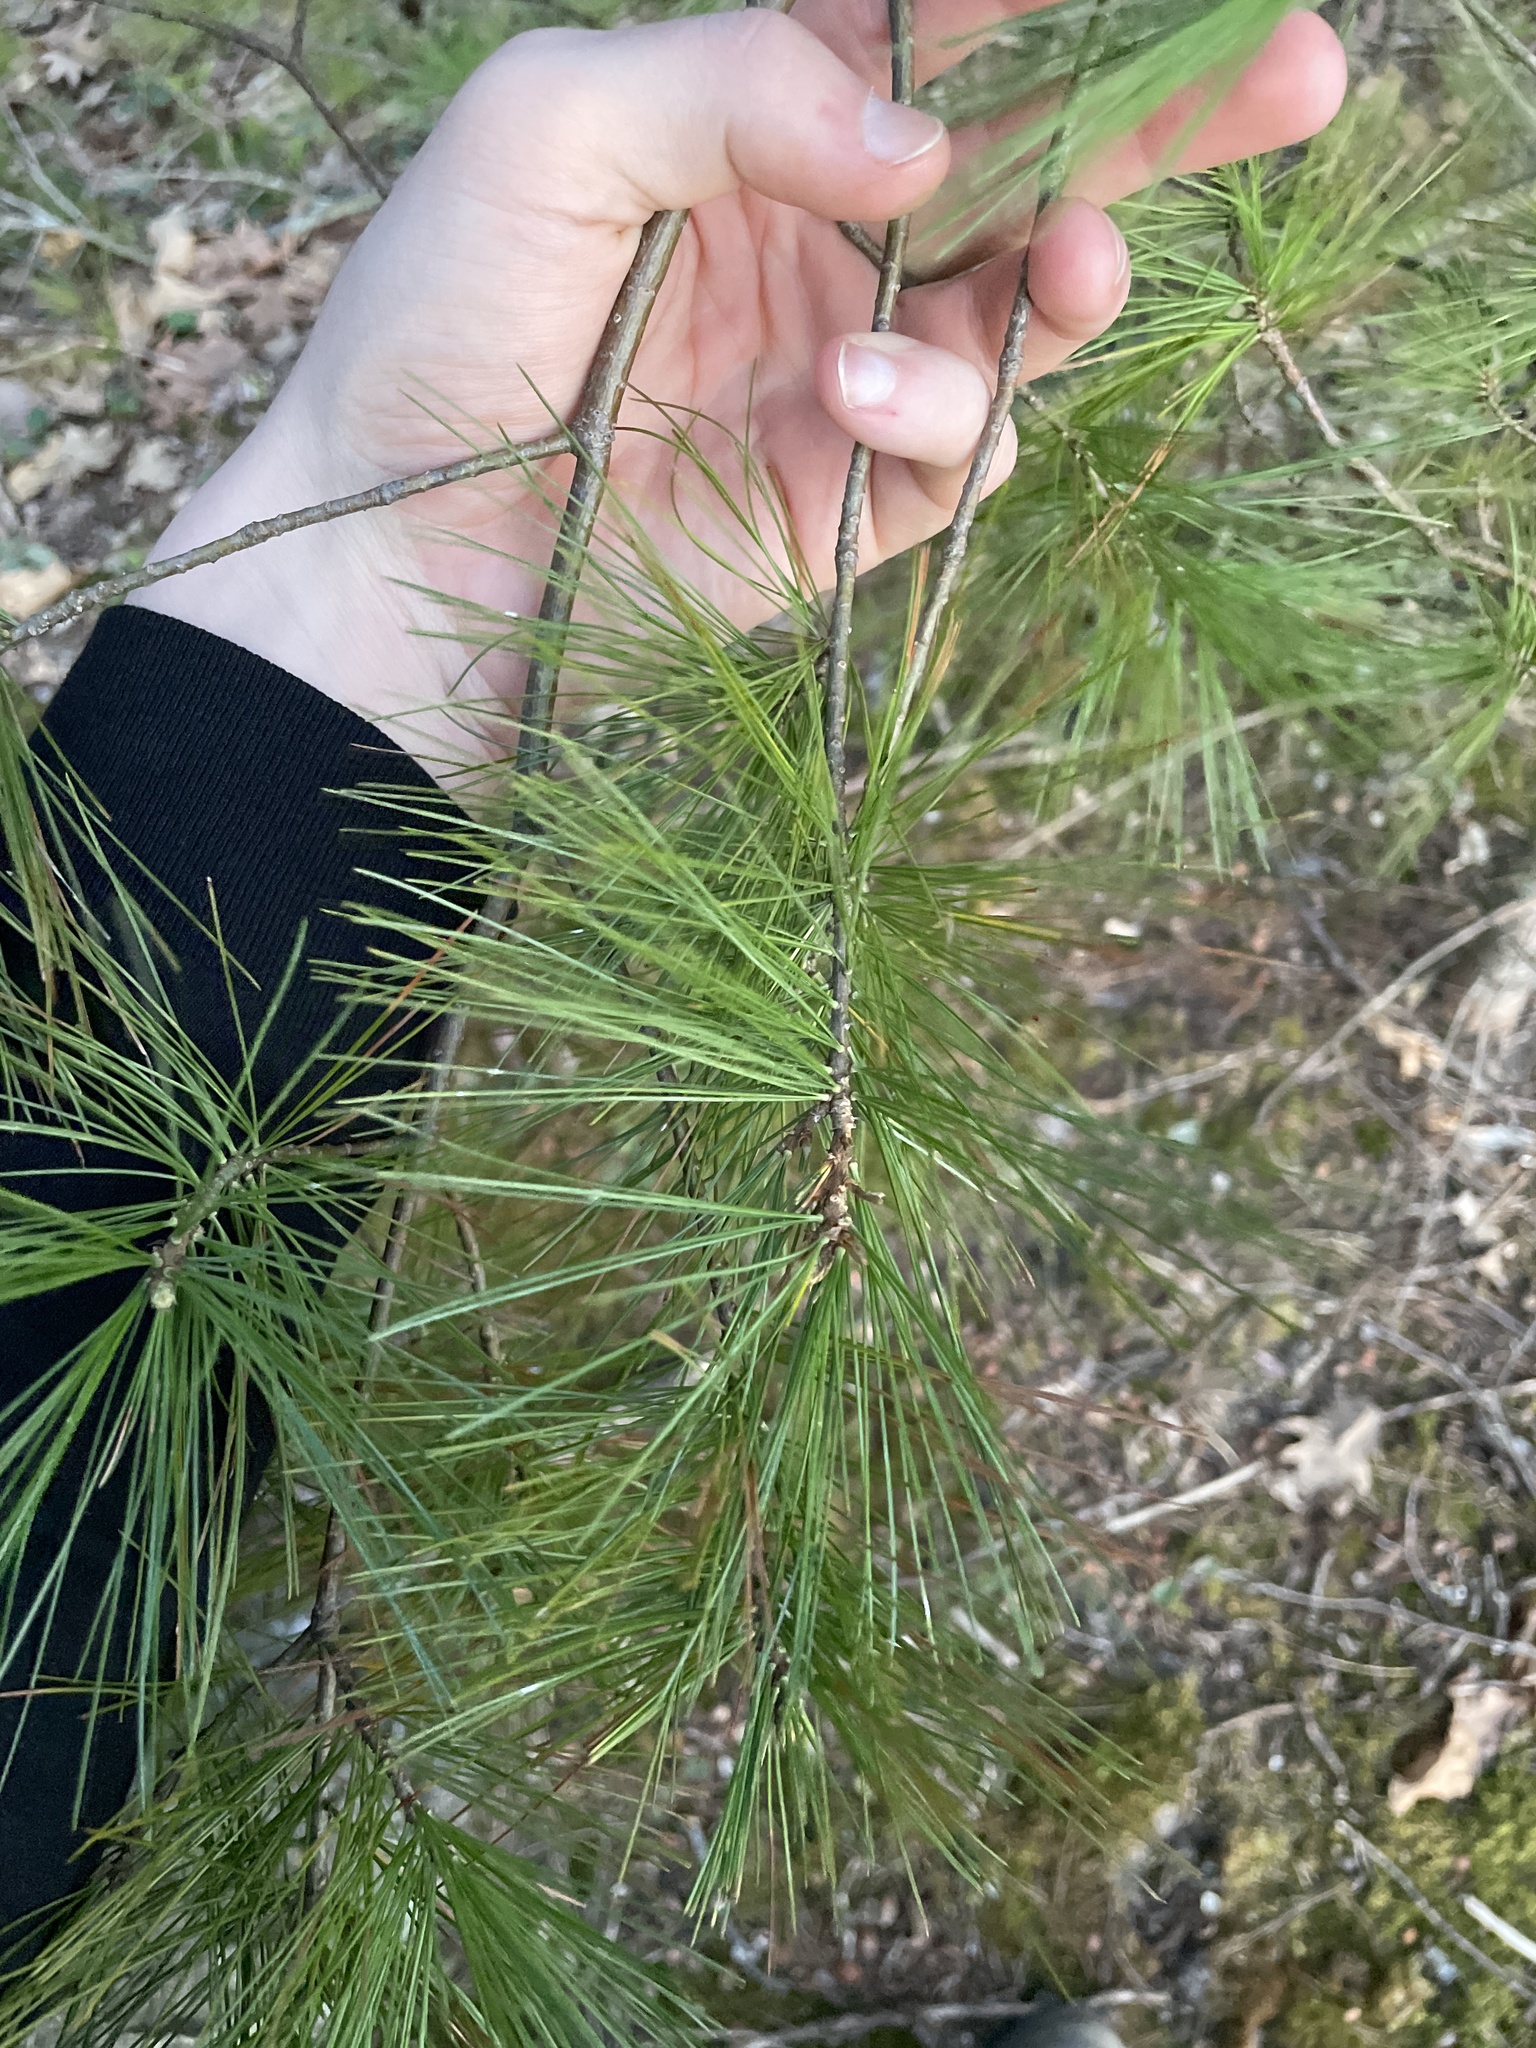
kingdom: Plantae
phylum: Tracheophyta
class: Pinopsida
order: Pinales
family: Pinaceae
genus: Pinus
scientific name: Pinus strobus
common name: Weymouth pine
